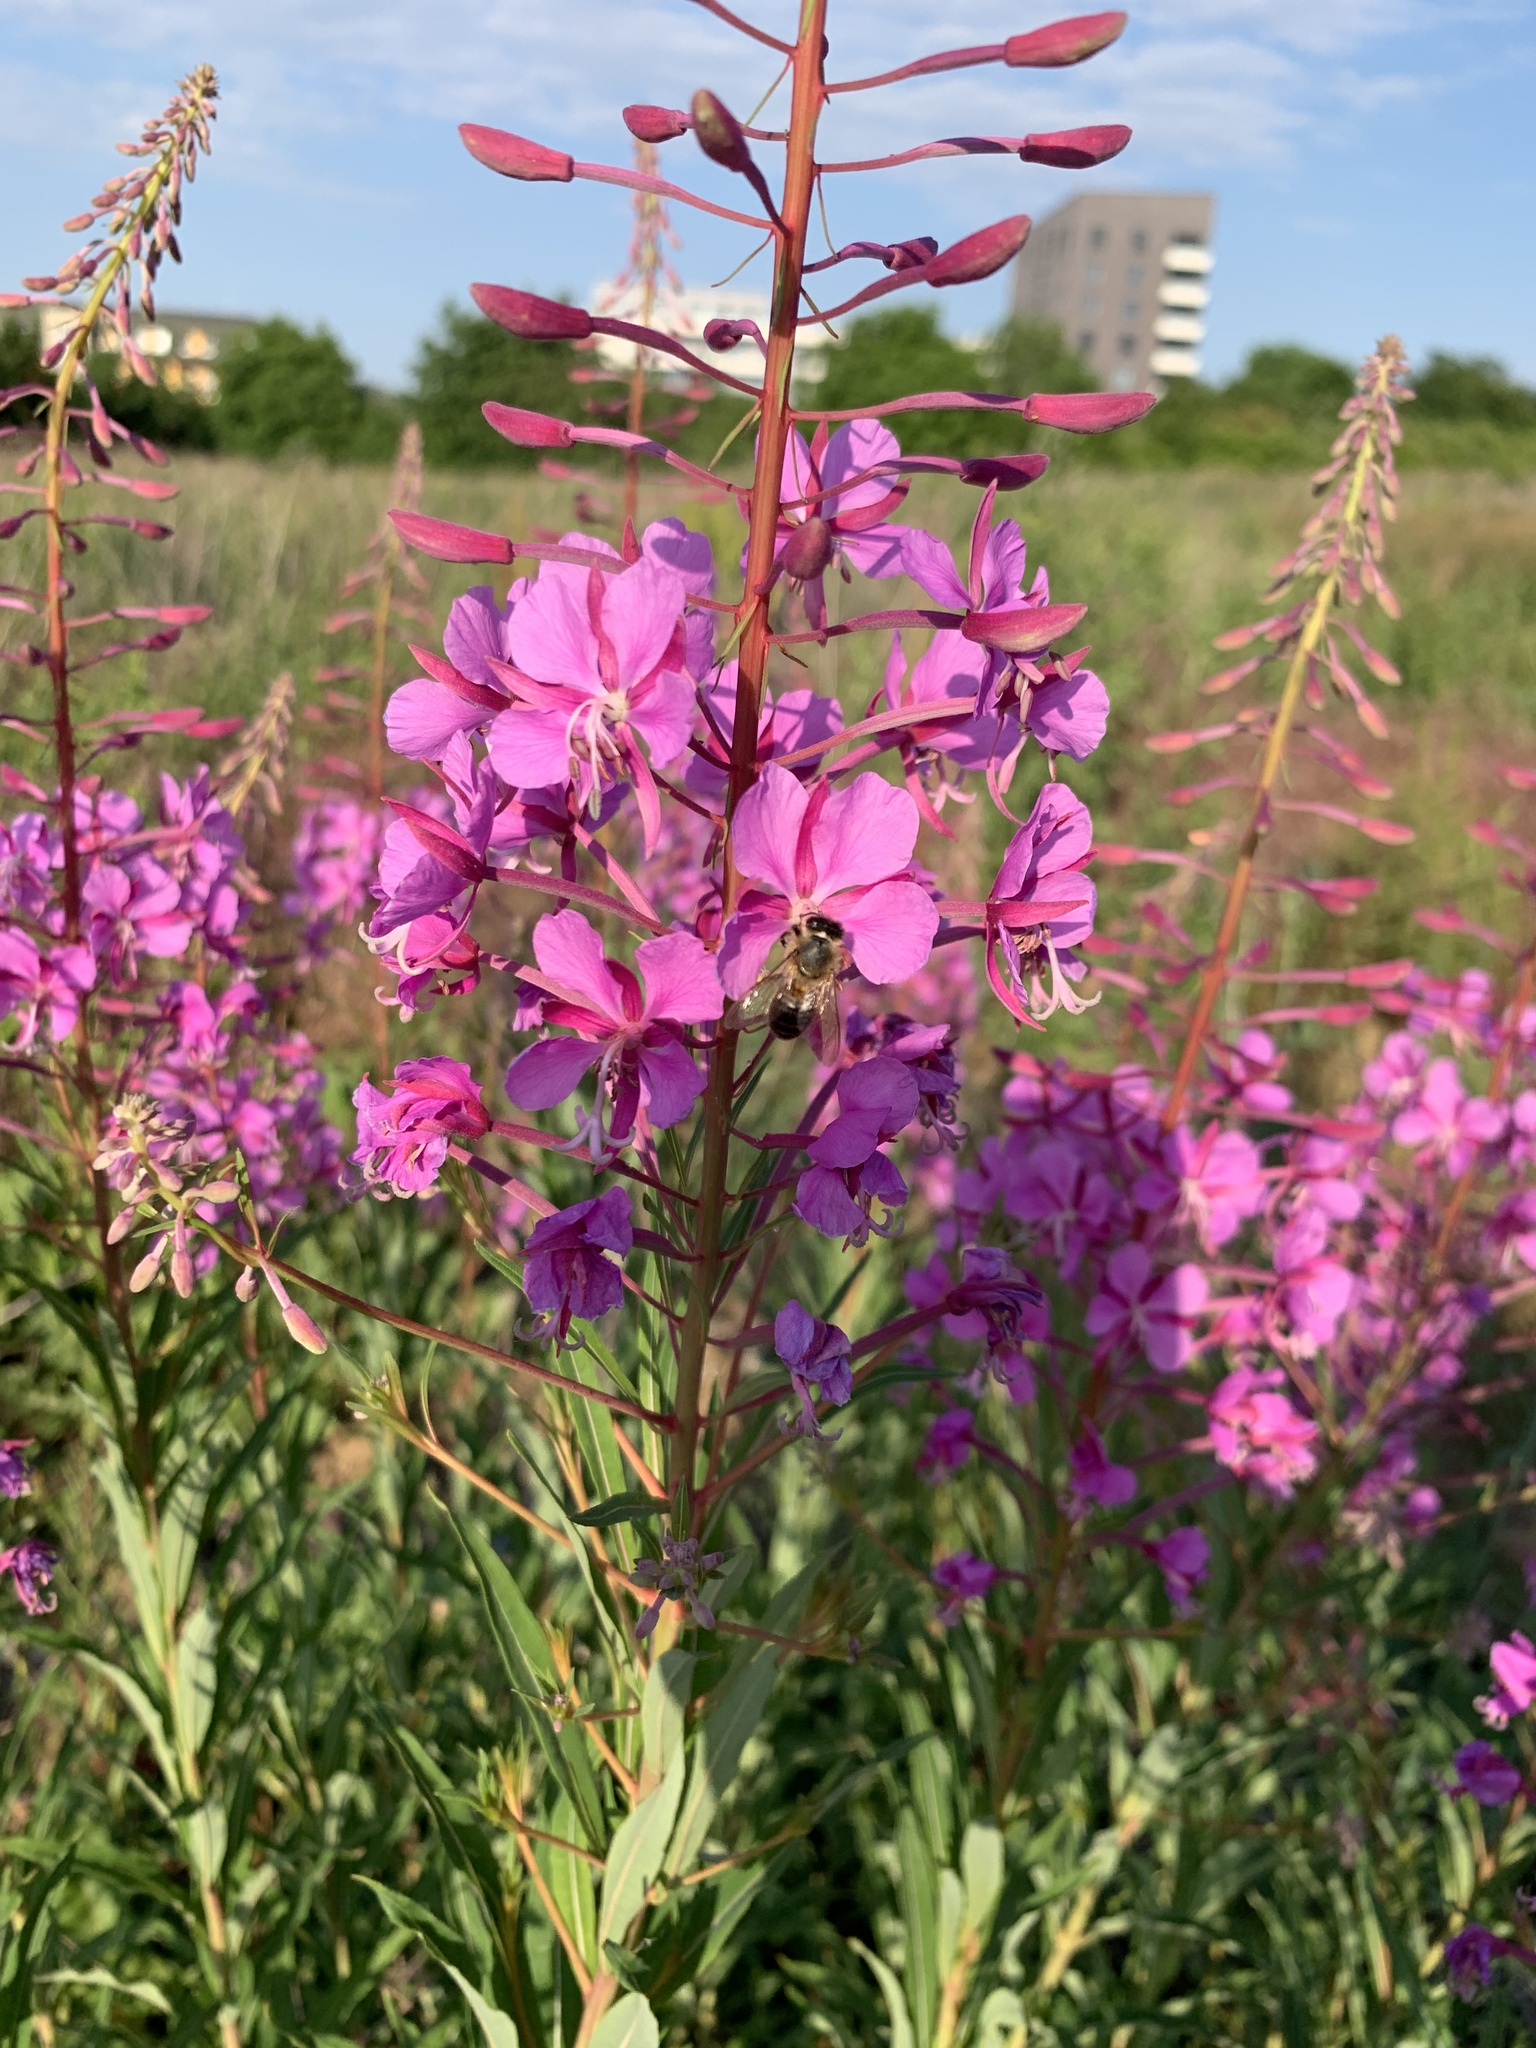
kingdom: Plantae
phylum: Tracheophyta
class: Magnoliopsida
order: Myrtales
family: Onagraceae
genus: Chamaenerion
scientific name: Chamaenerion angustifolium
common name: Fireweed
